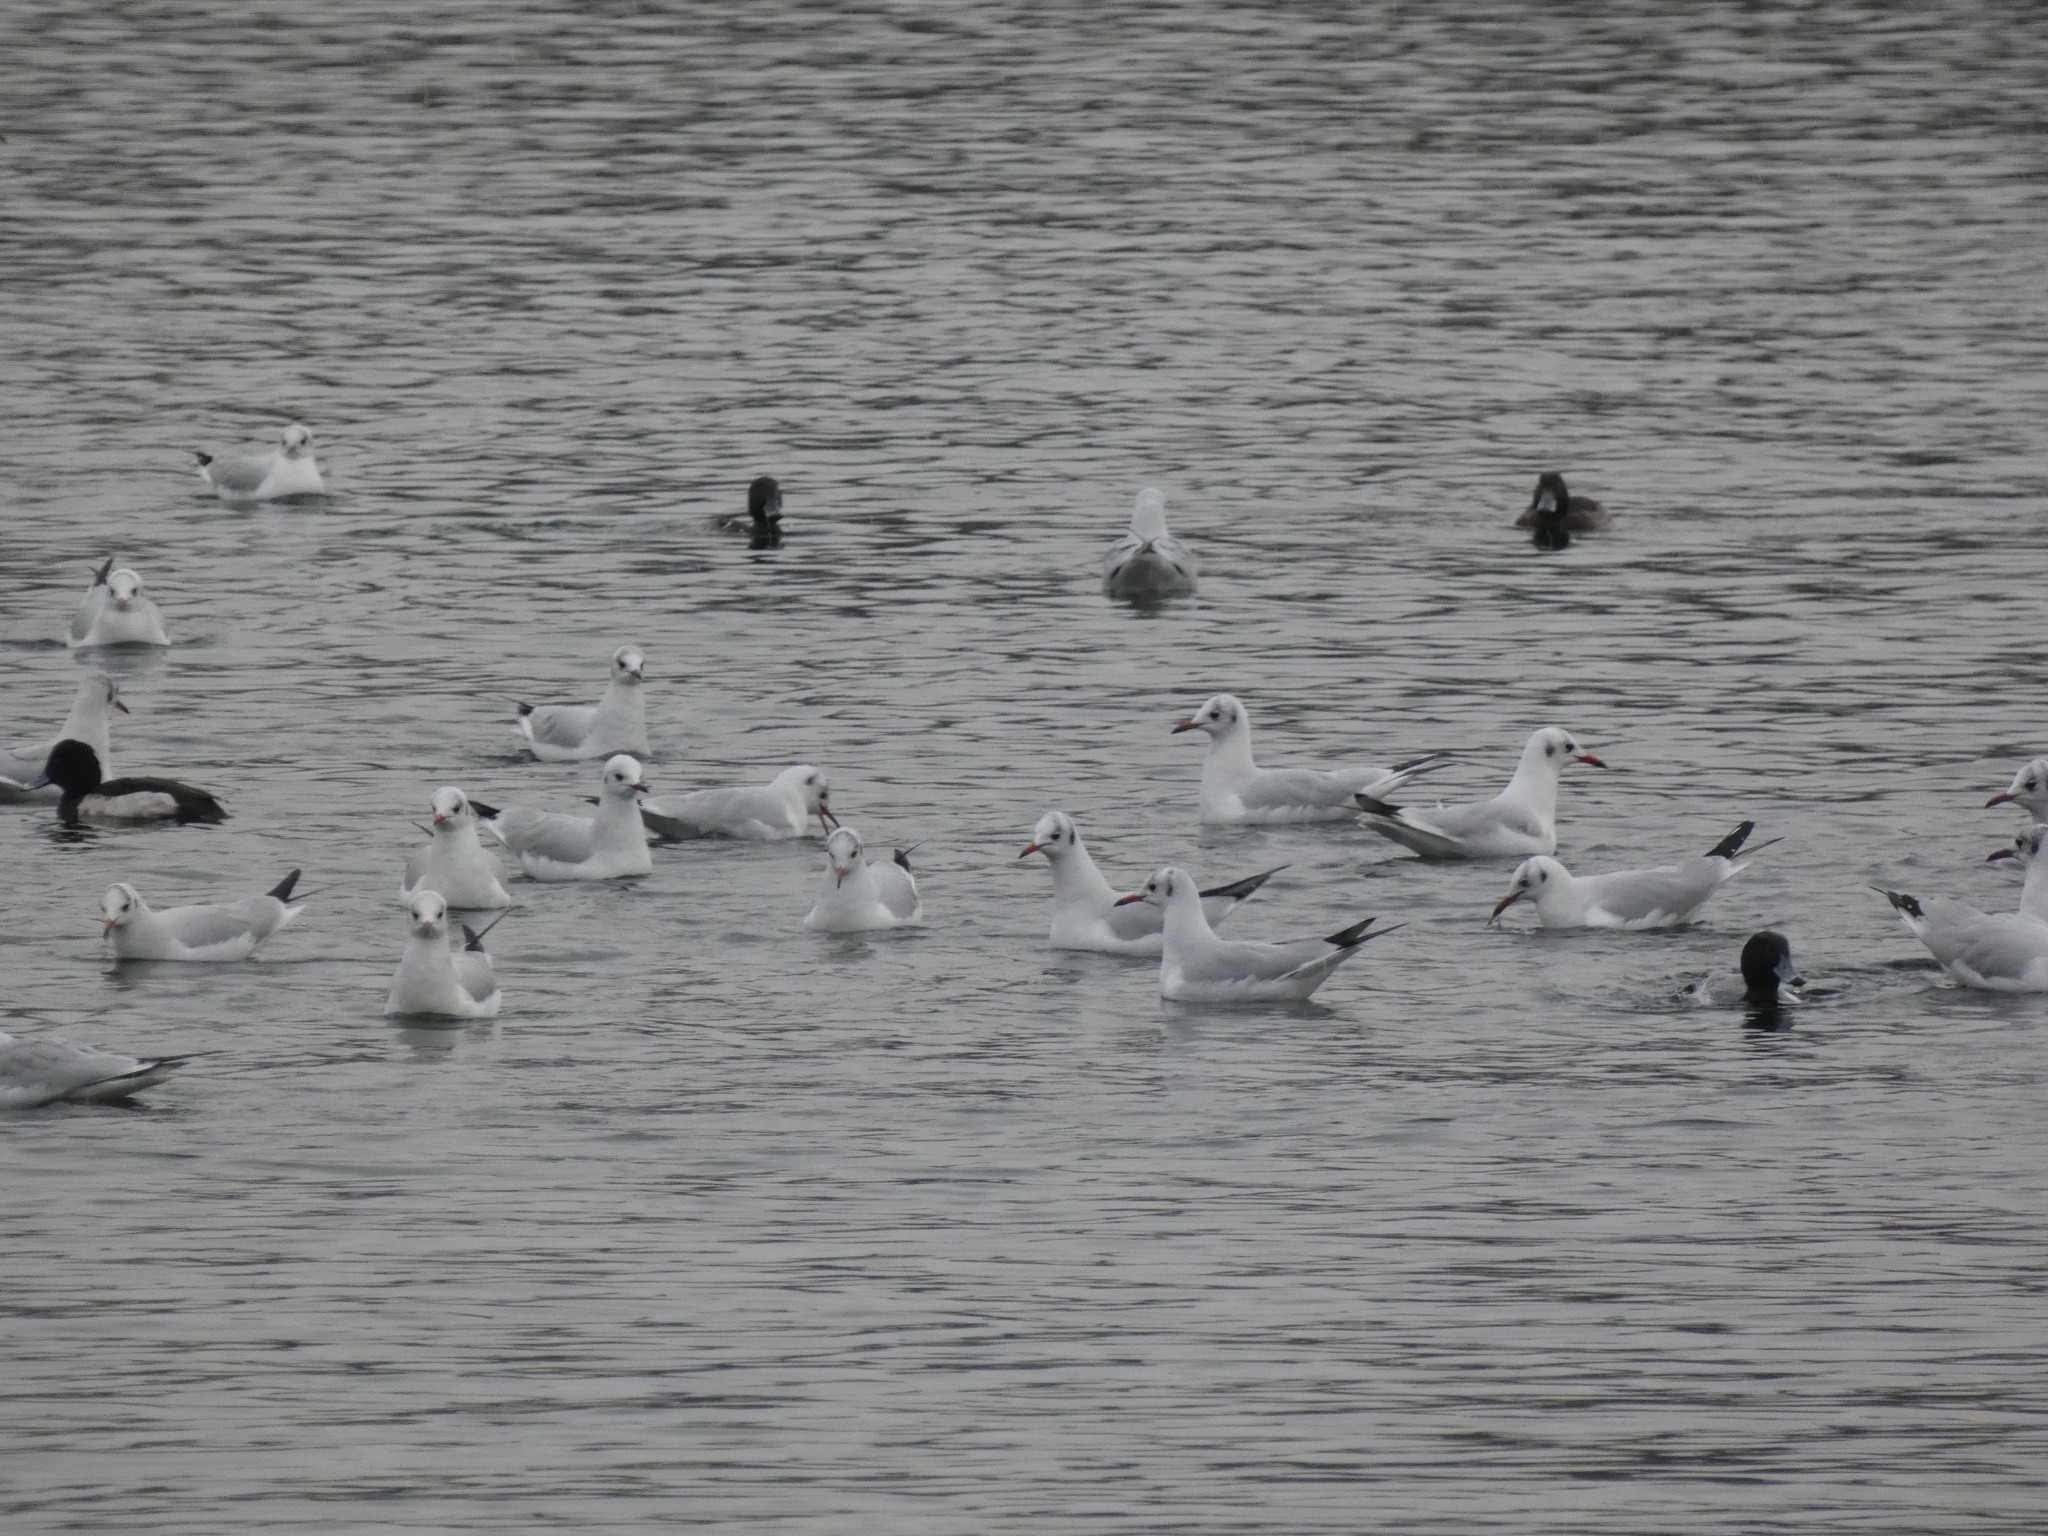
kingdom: Animalia
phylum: Chordata
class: Aves
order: Charadriiformes
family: Laridae
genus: Chroicocephalus
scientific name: Chroicocephalus ridibundus
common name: Black-headed gull
